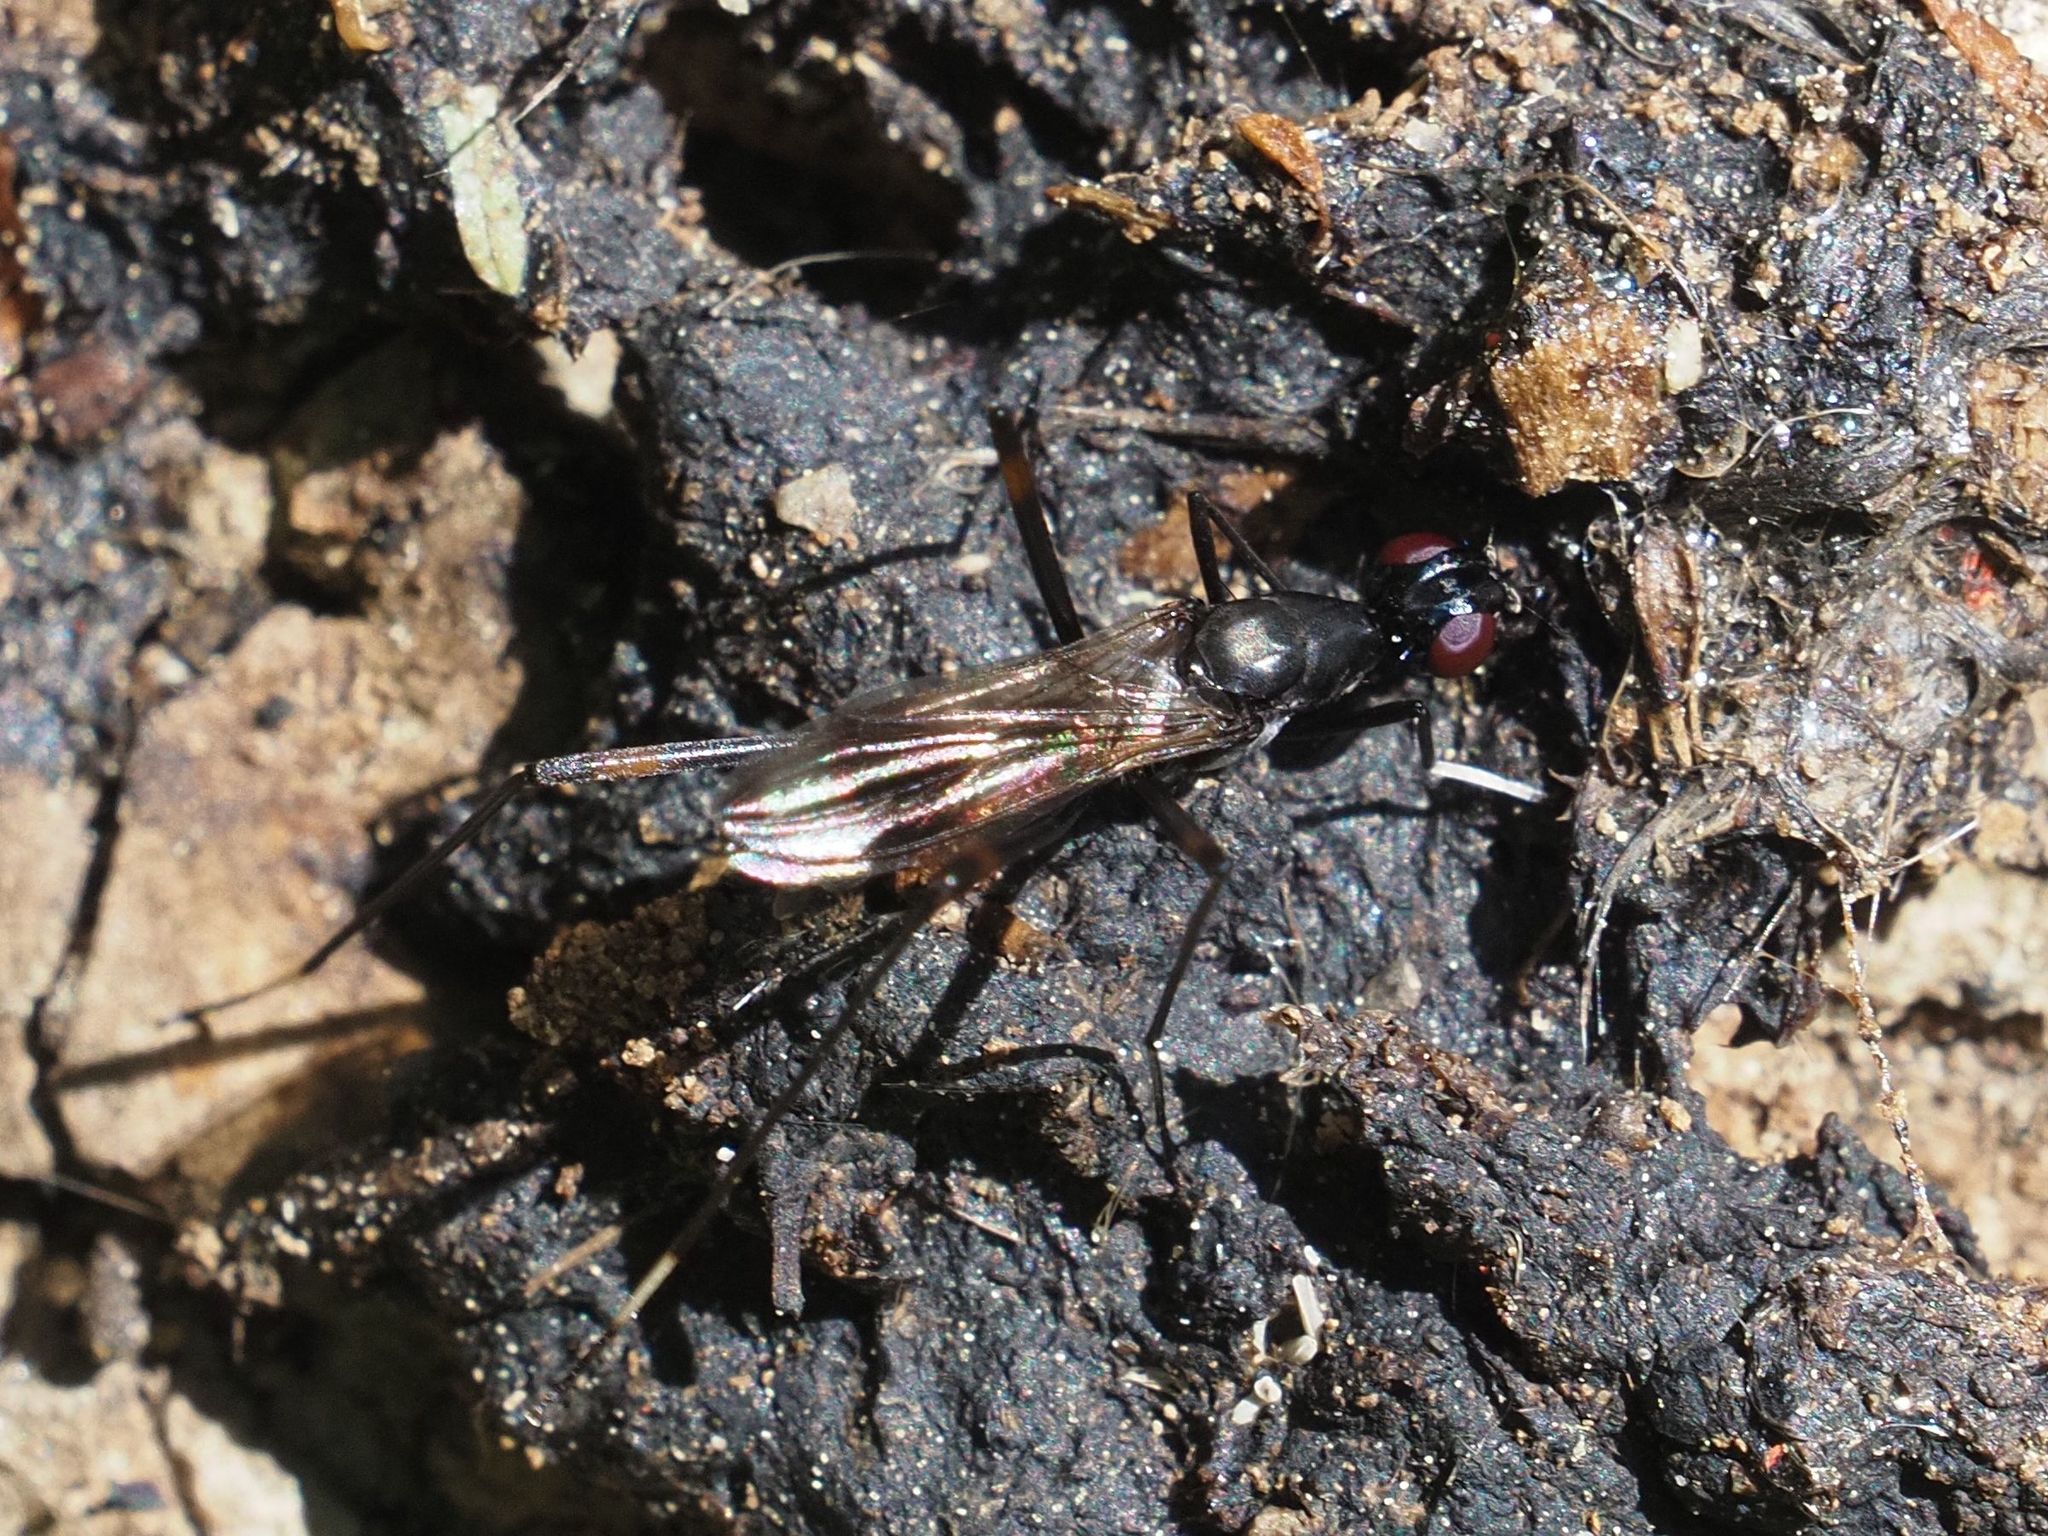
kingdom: Animalia
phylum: Arthropoda
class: Insecta
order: Diptera
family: Micropezidae
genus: Rainieria
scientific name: Rainieria calceata
